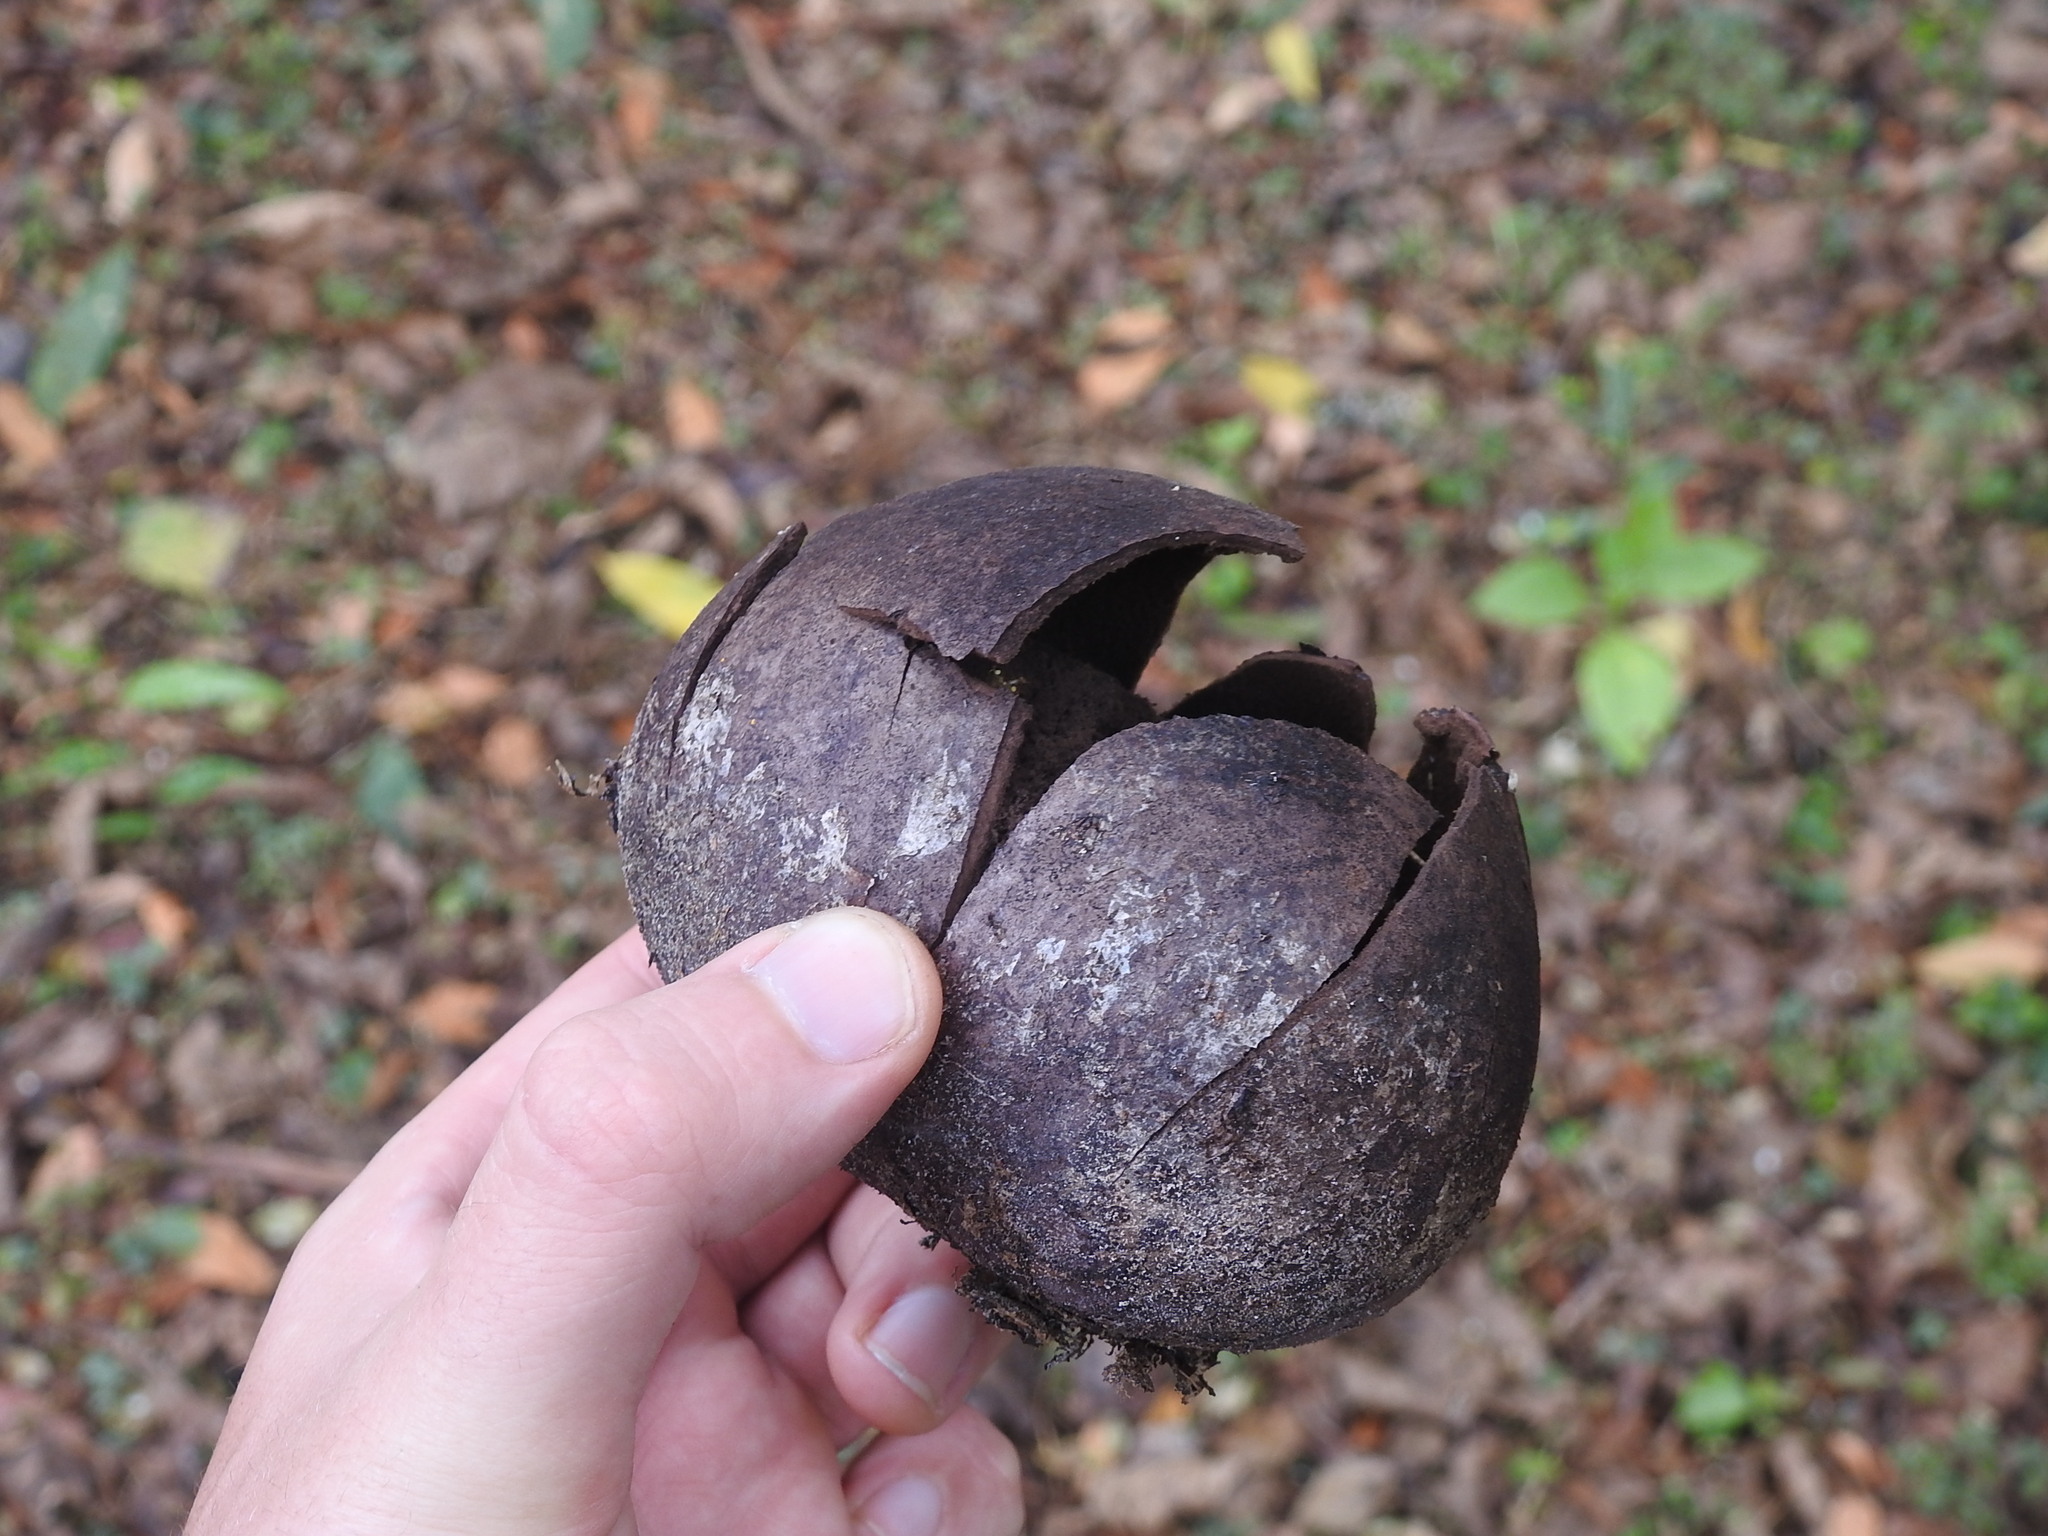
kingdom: Fungi
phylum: Basidiomycota
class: Agaricomycetes
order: Agaricales
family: Agaricaceae
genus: Mycenastrum
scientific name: Mycenastrum corium
